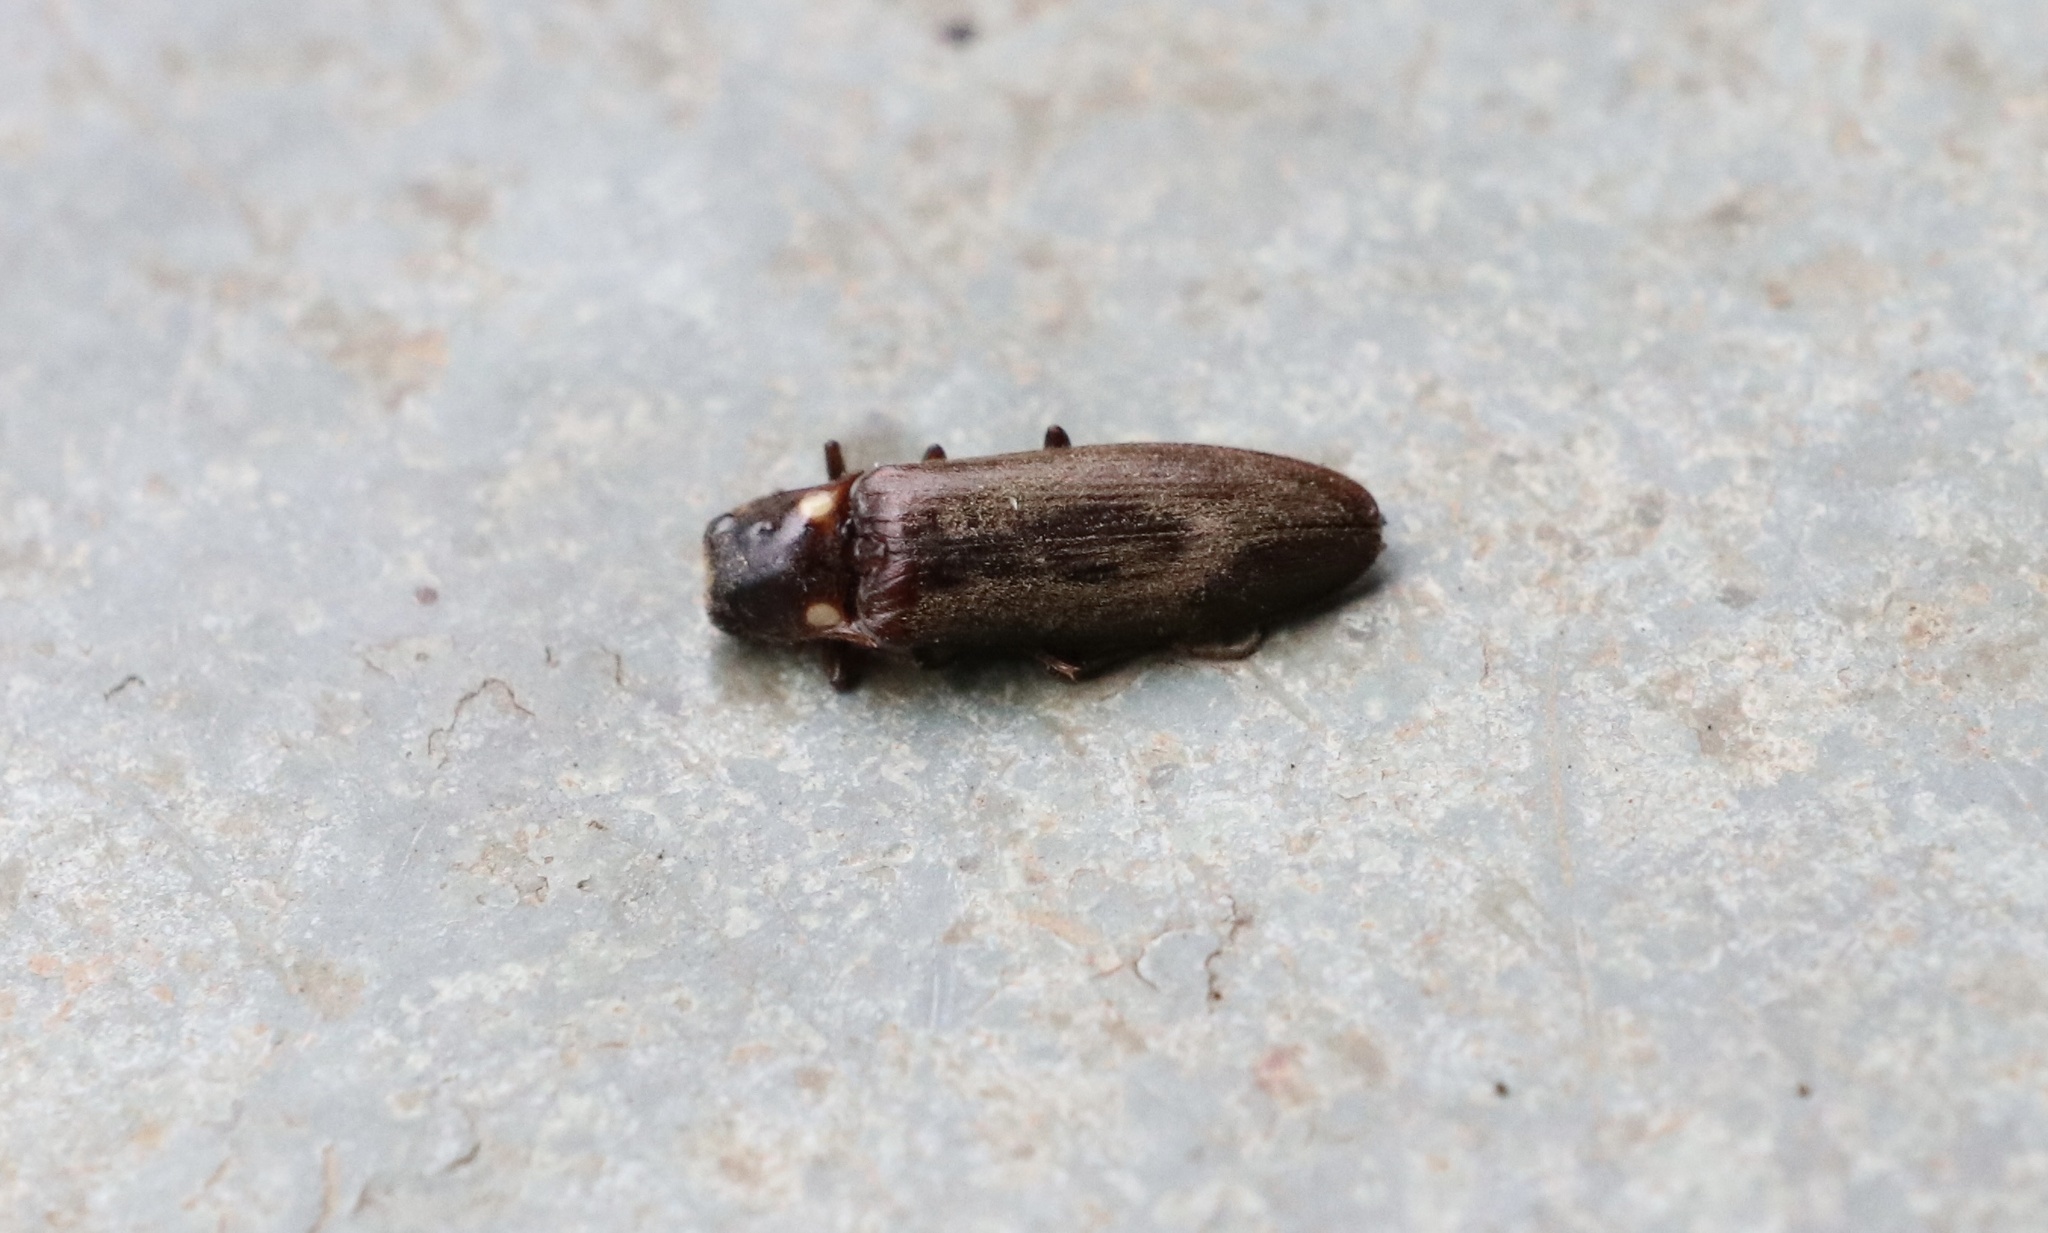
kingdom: Animalia
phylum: Arthropoda
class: Insecta
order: Coleoptera
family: Elateridae
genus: Phanophorus
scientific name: Phanophorus
